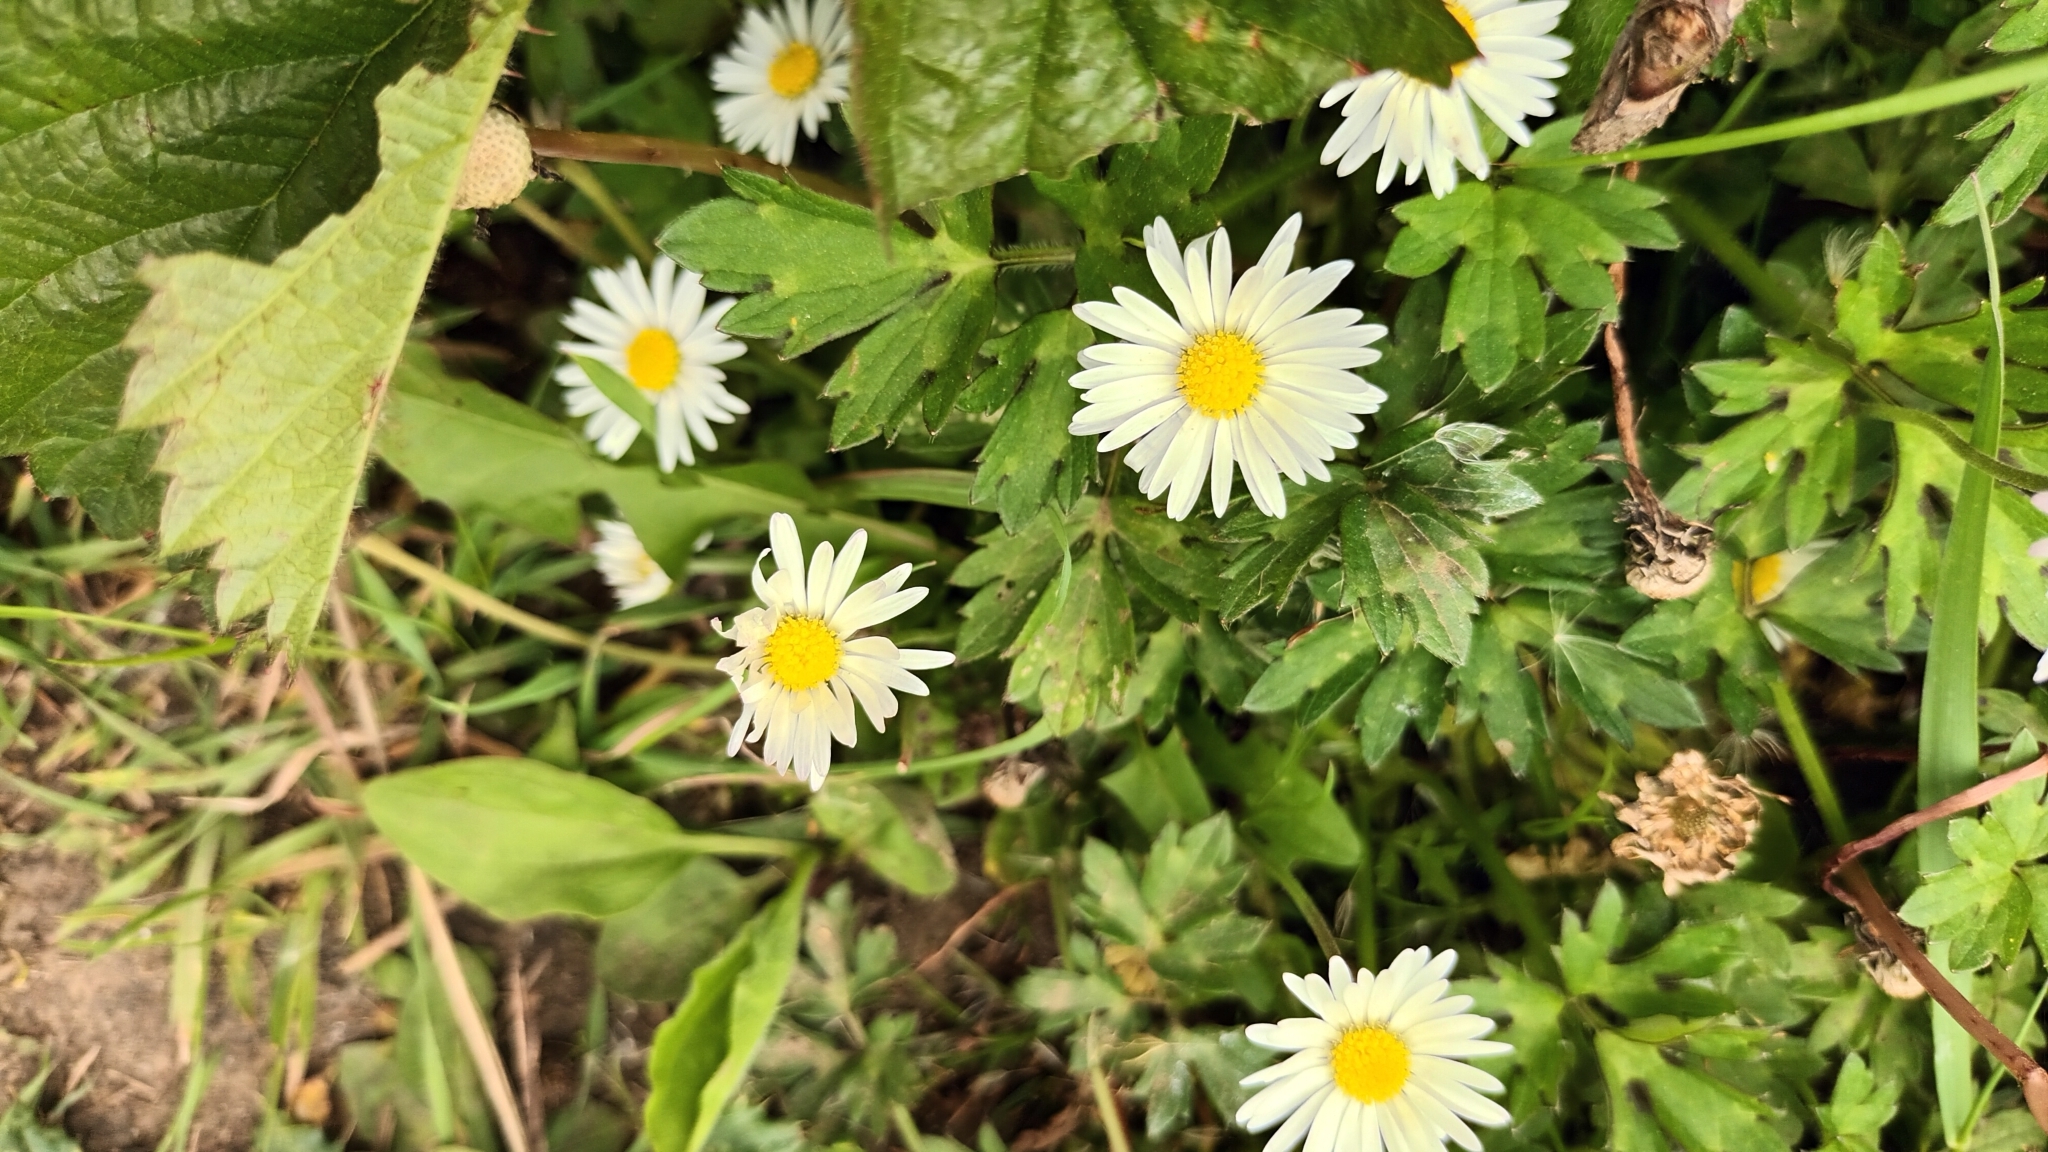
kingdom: Plantae
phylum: Tracheophyta
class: Magnoliopsida
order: Asterales
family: Asteraceae
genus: Bellis
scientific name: Bellis perennis
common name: Lawndaisy
